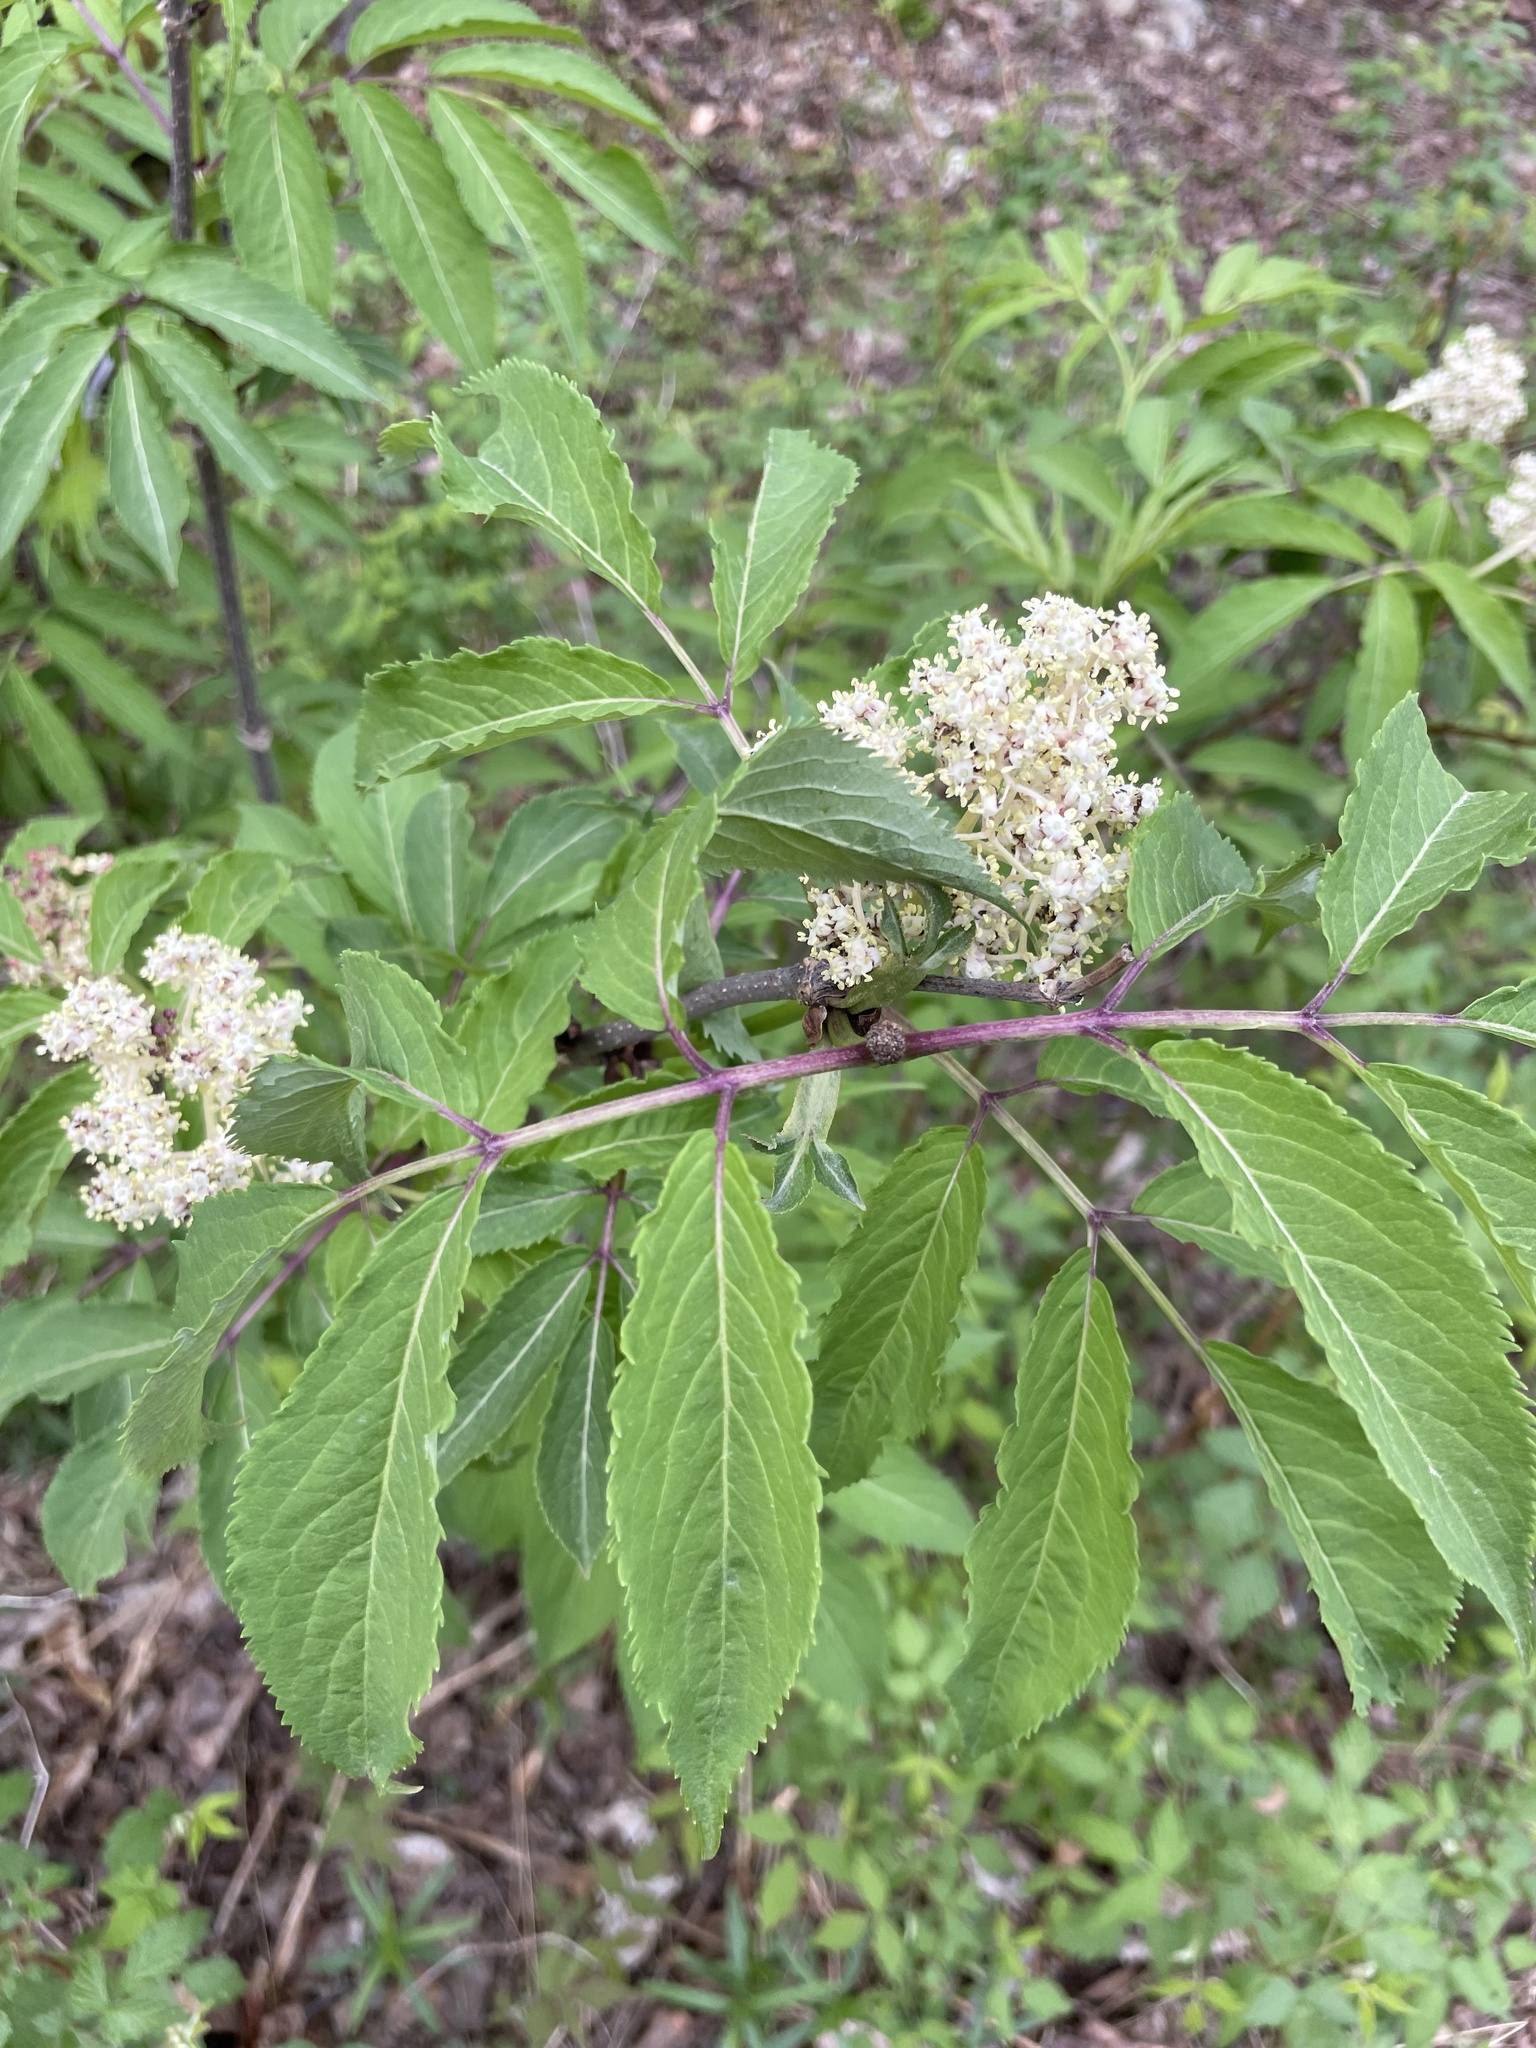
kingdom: Plantae
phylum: Tracheophyta
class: Magnoliopsida
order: Dipsacales
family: Viburnaceae
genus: Sambucus
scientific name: Sambucus racemosa
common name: Red-berried elder
